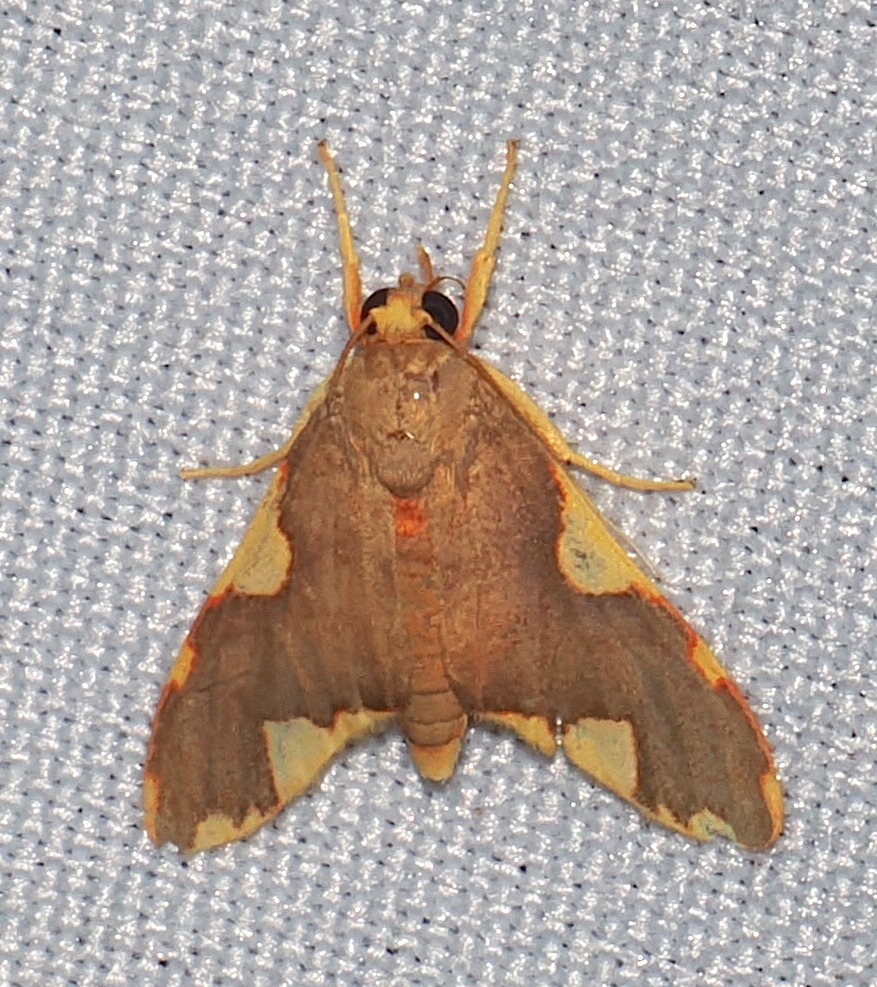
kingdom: Animalia
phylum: Arthropoda
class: Insecta
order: Lepidoptera
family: Erebidae
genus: Trichromia
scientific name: Trichromia
